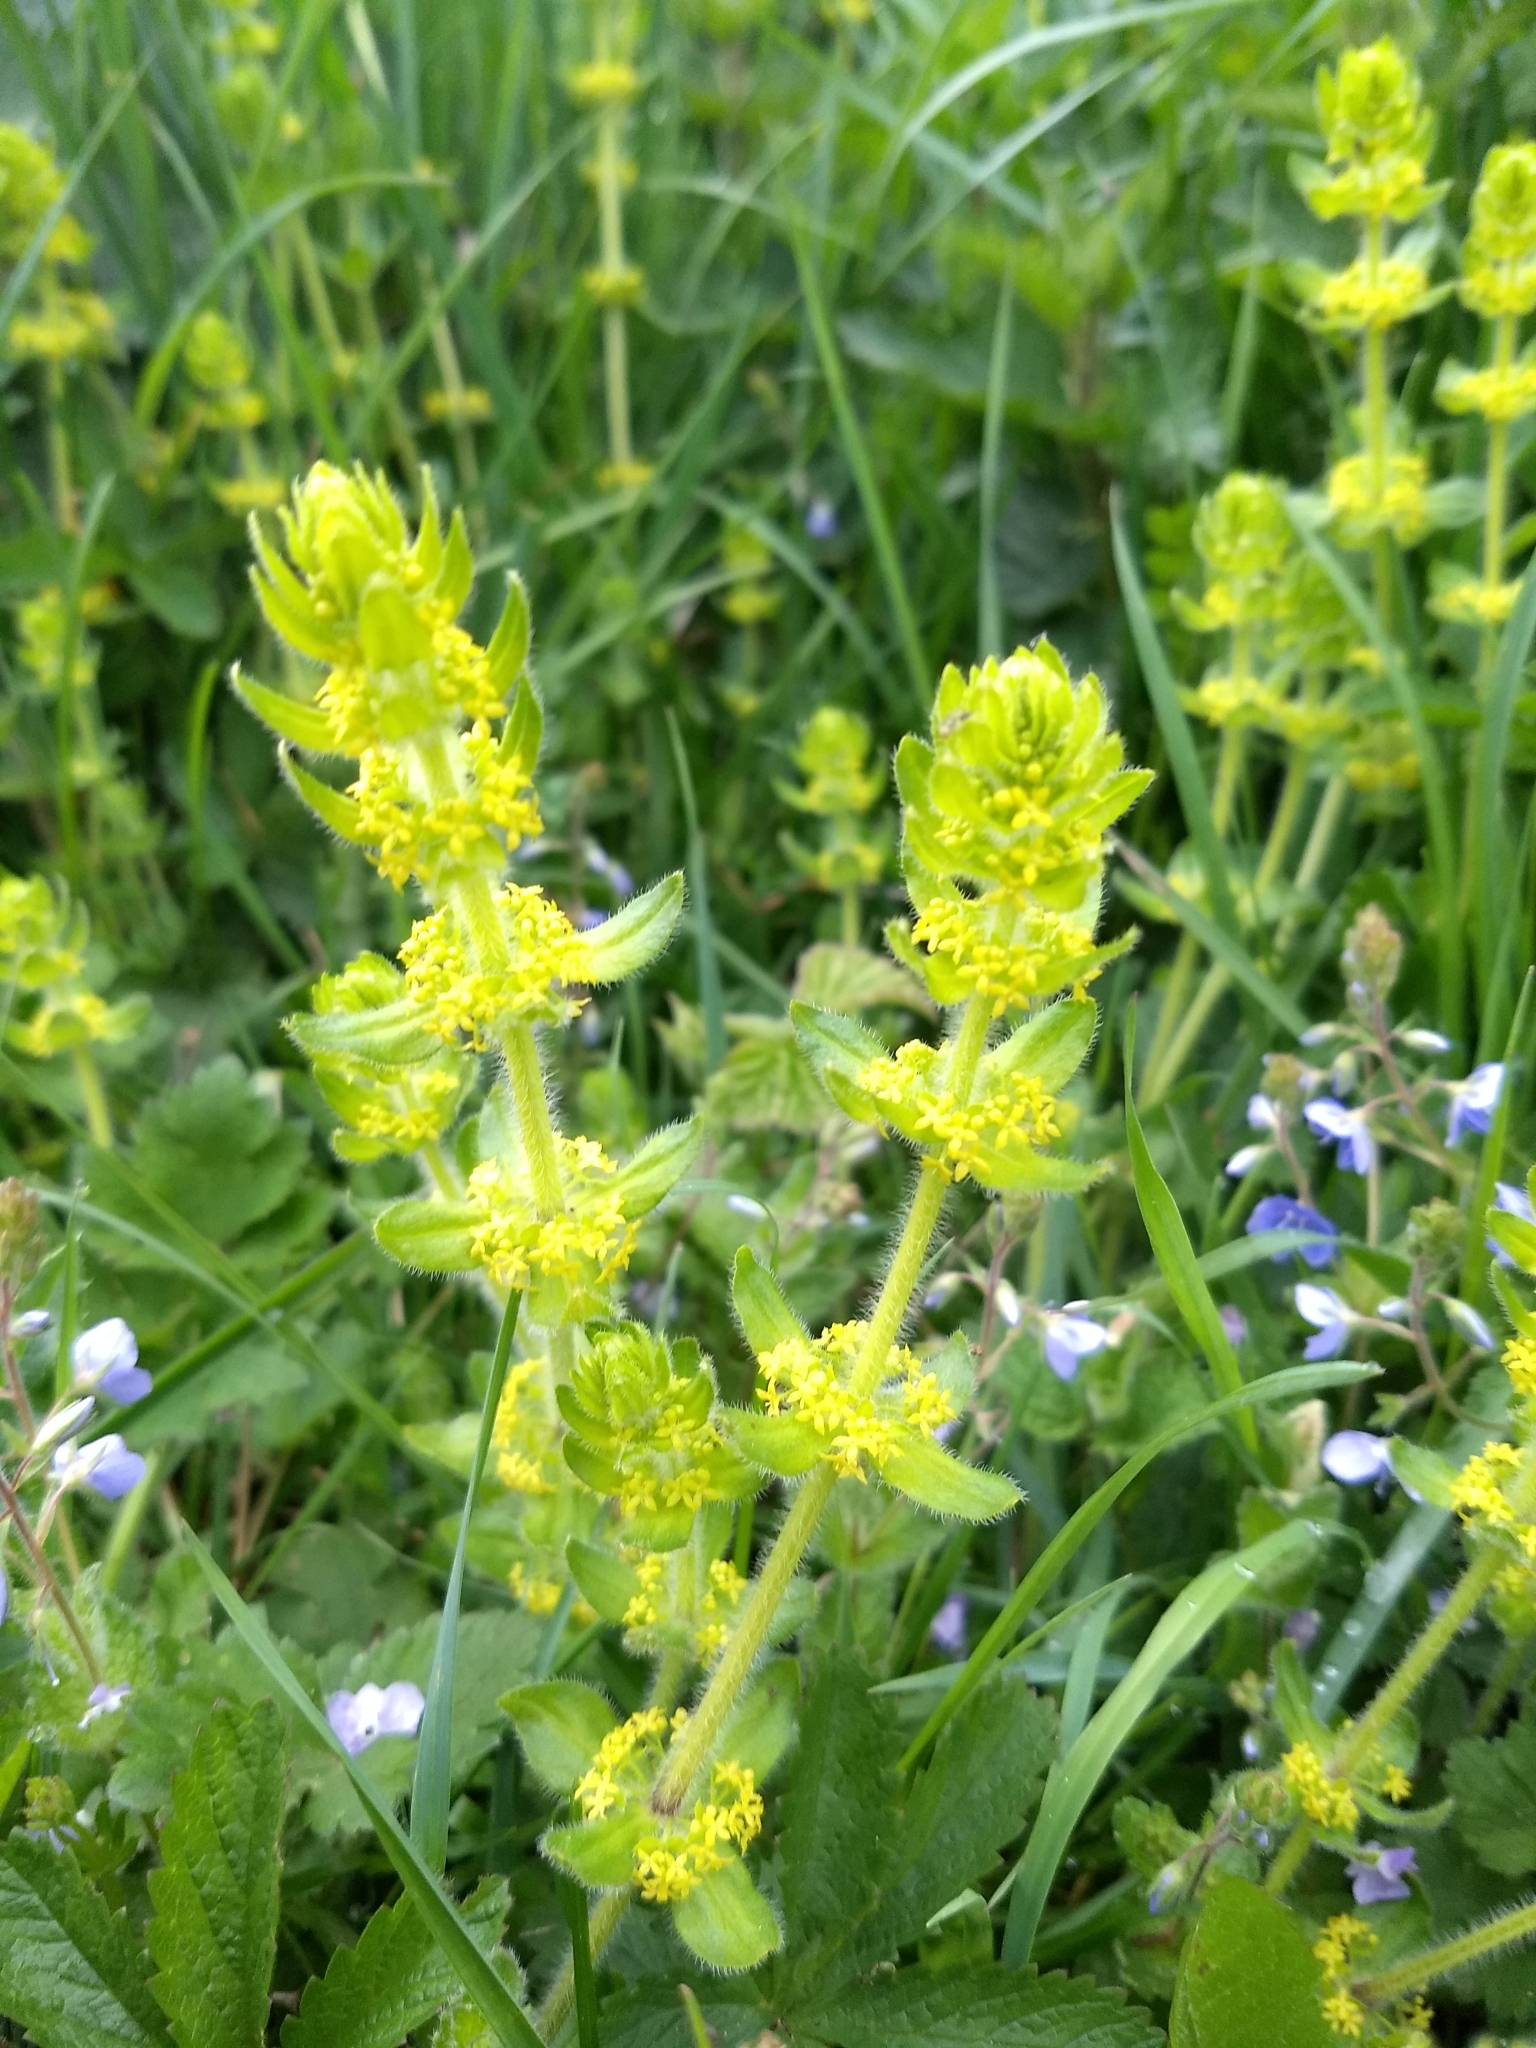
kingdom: Plantae
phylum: Tracheophyta
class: Magnoliopsida
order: Gentianales
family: Rubiaceae
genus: Cruciata
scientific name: Cruciata laevipes
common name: Crosswort
